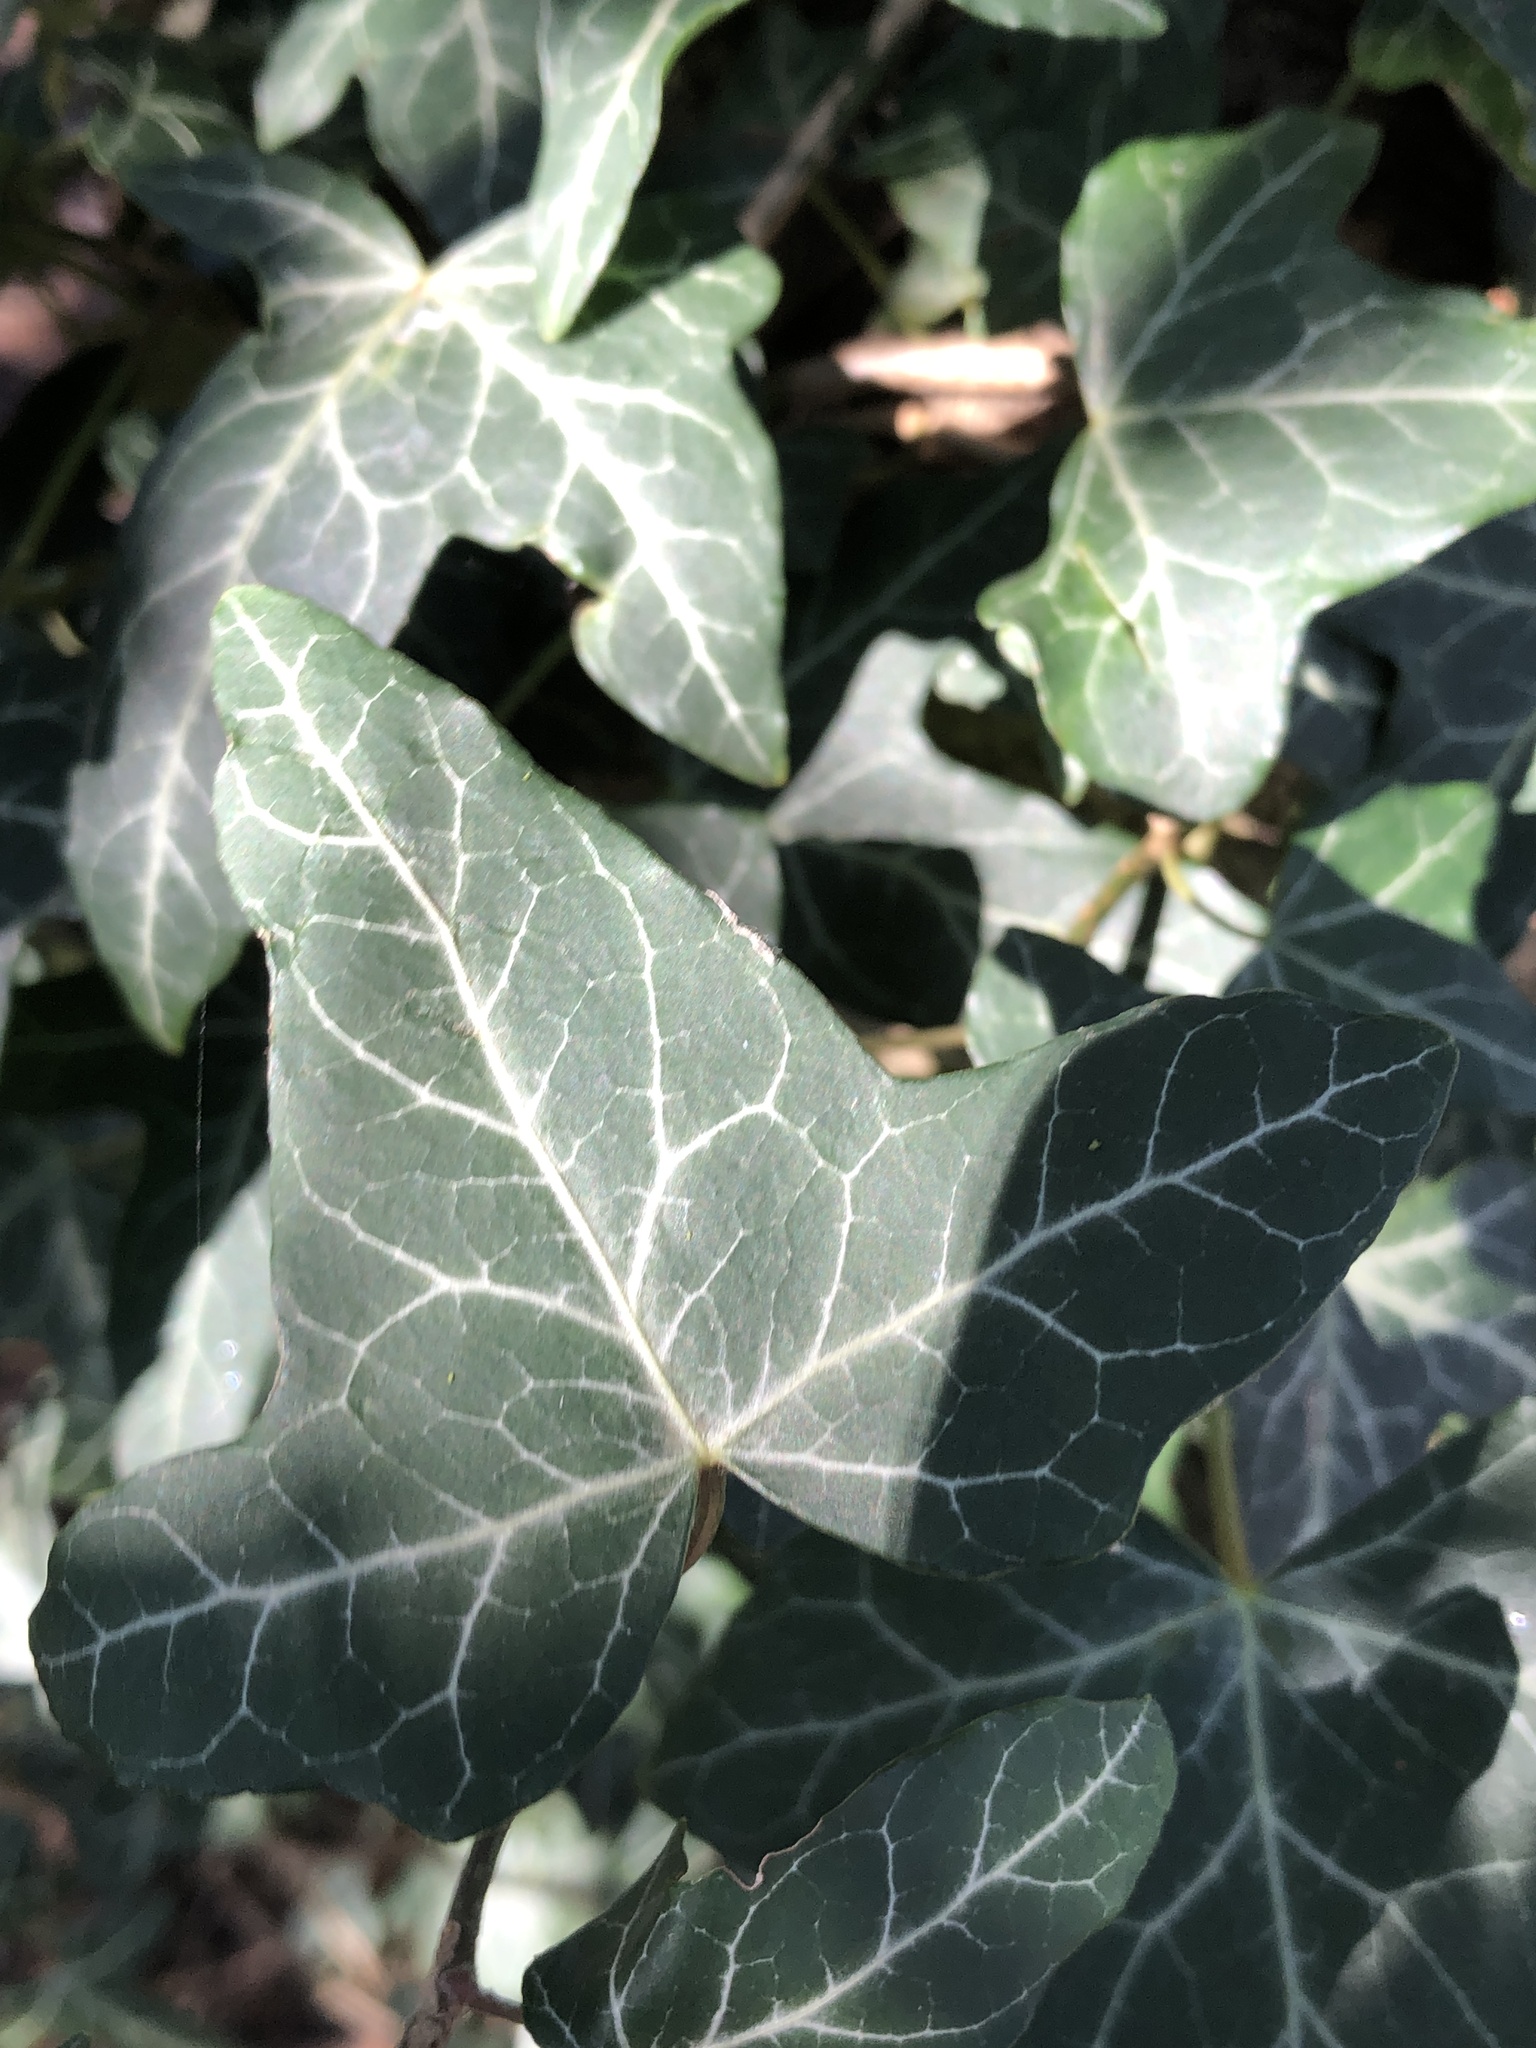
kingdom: Plantae
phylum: Tracheophyta
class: Magnoliopsida
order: Apiales
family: Araliaceae
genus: Hedera
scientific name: Hedera helix
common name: Ivy
